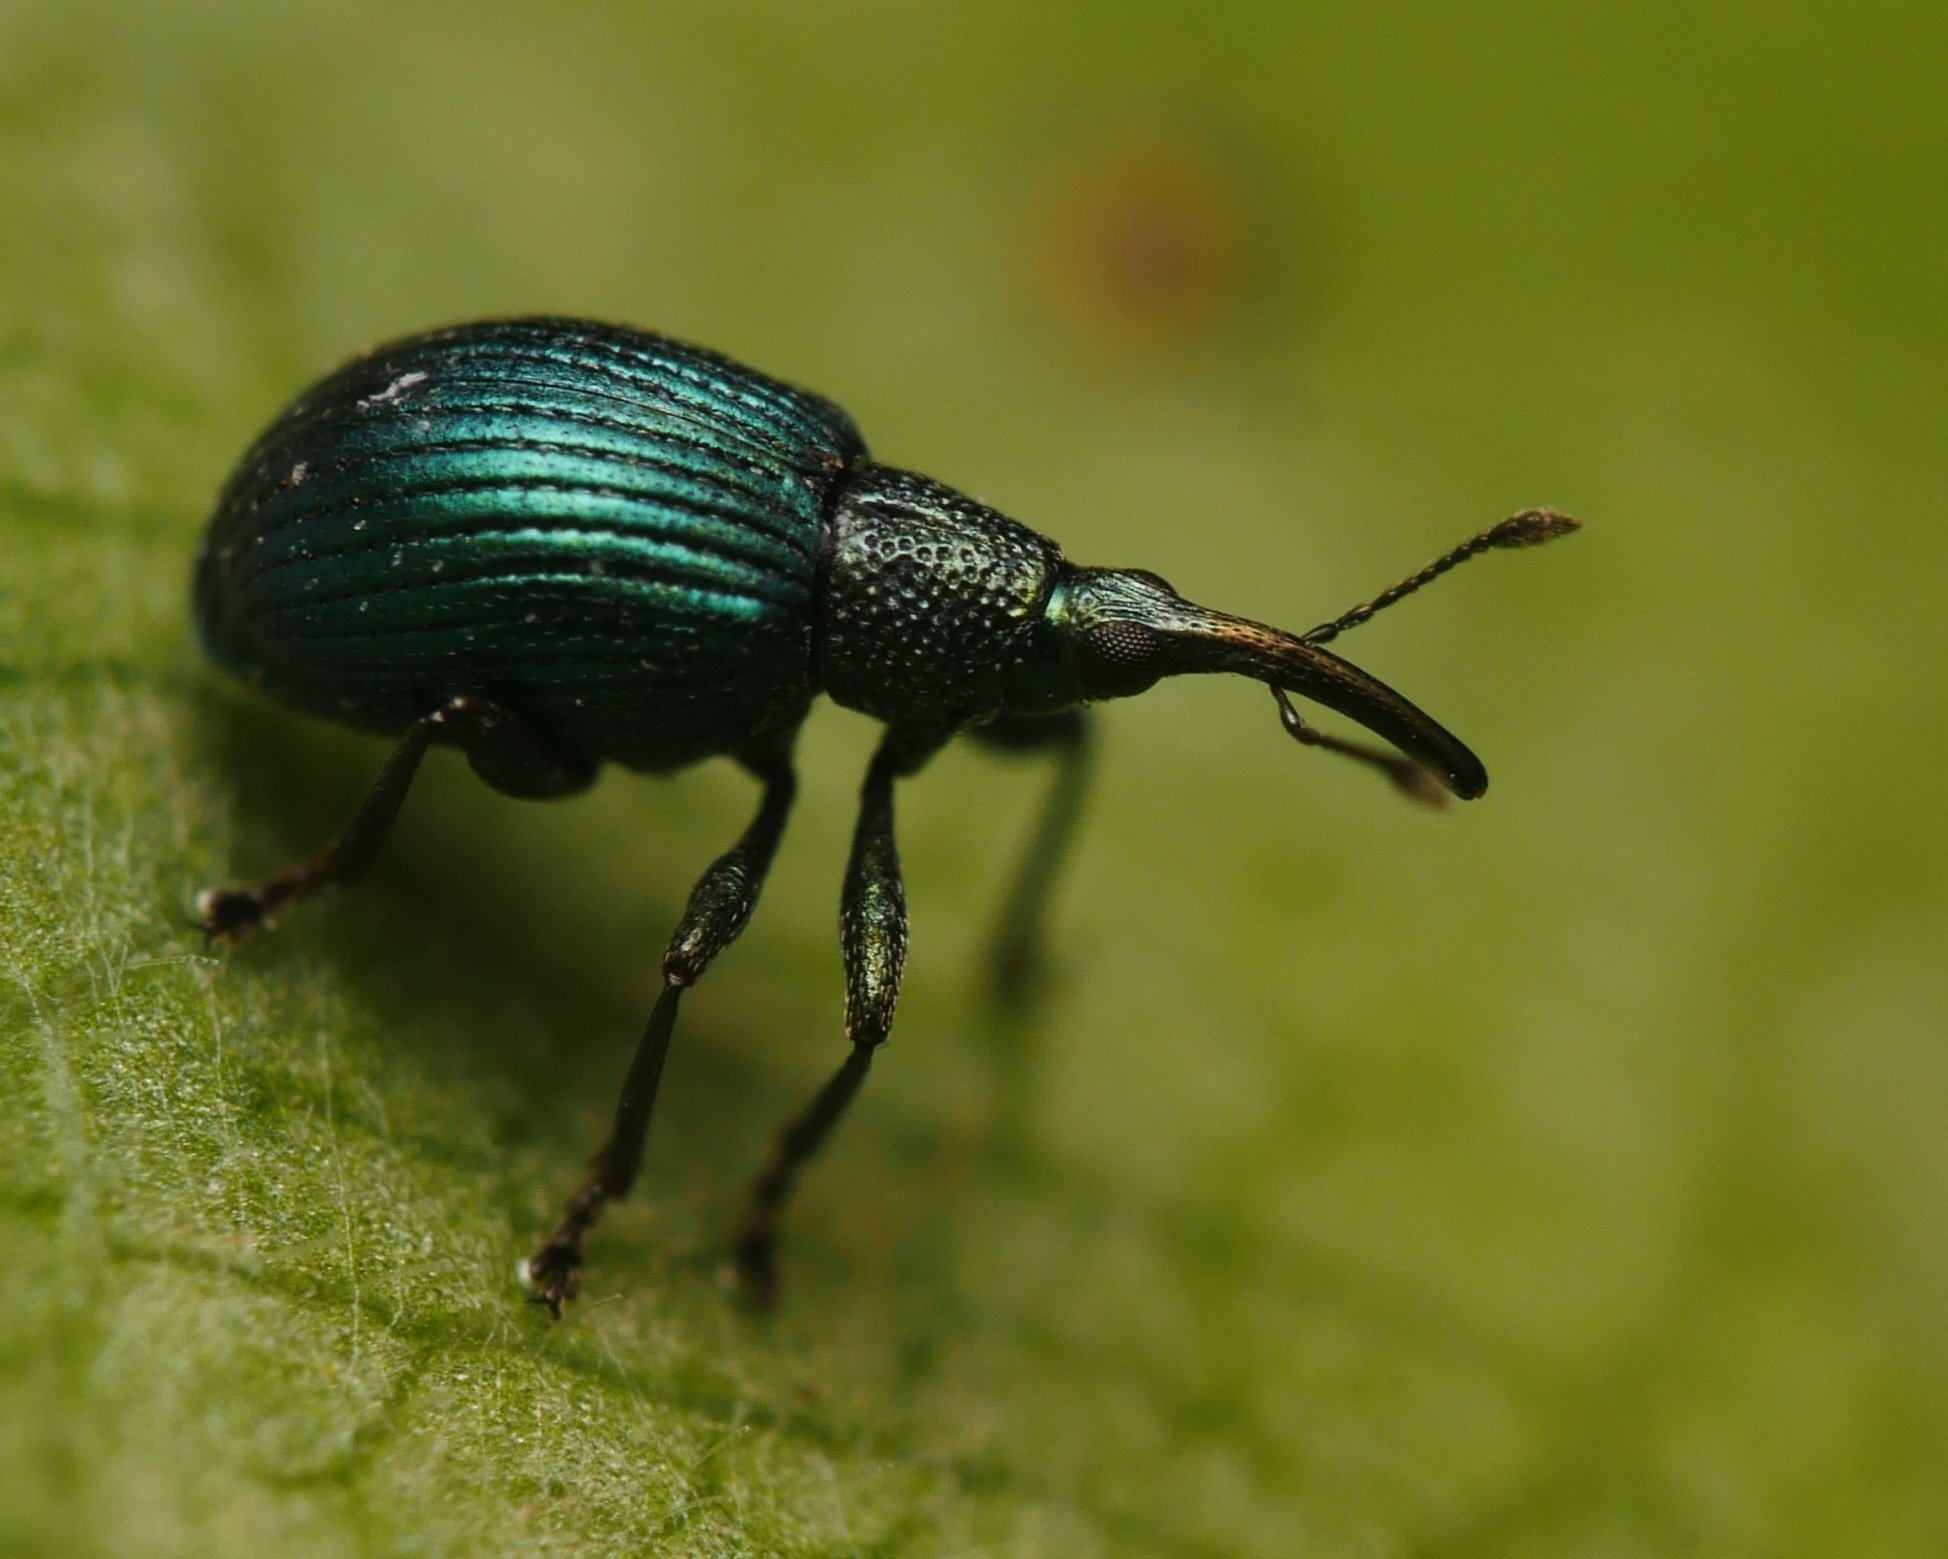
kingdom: Animalia
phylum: Arthropoda
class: Insecta
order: Coleoptera
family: Apionidae
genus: Pseudoprotapion
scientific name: Pseudoprotapion astragali
